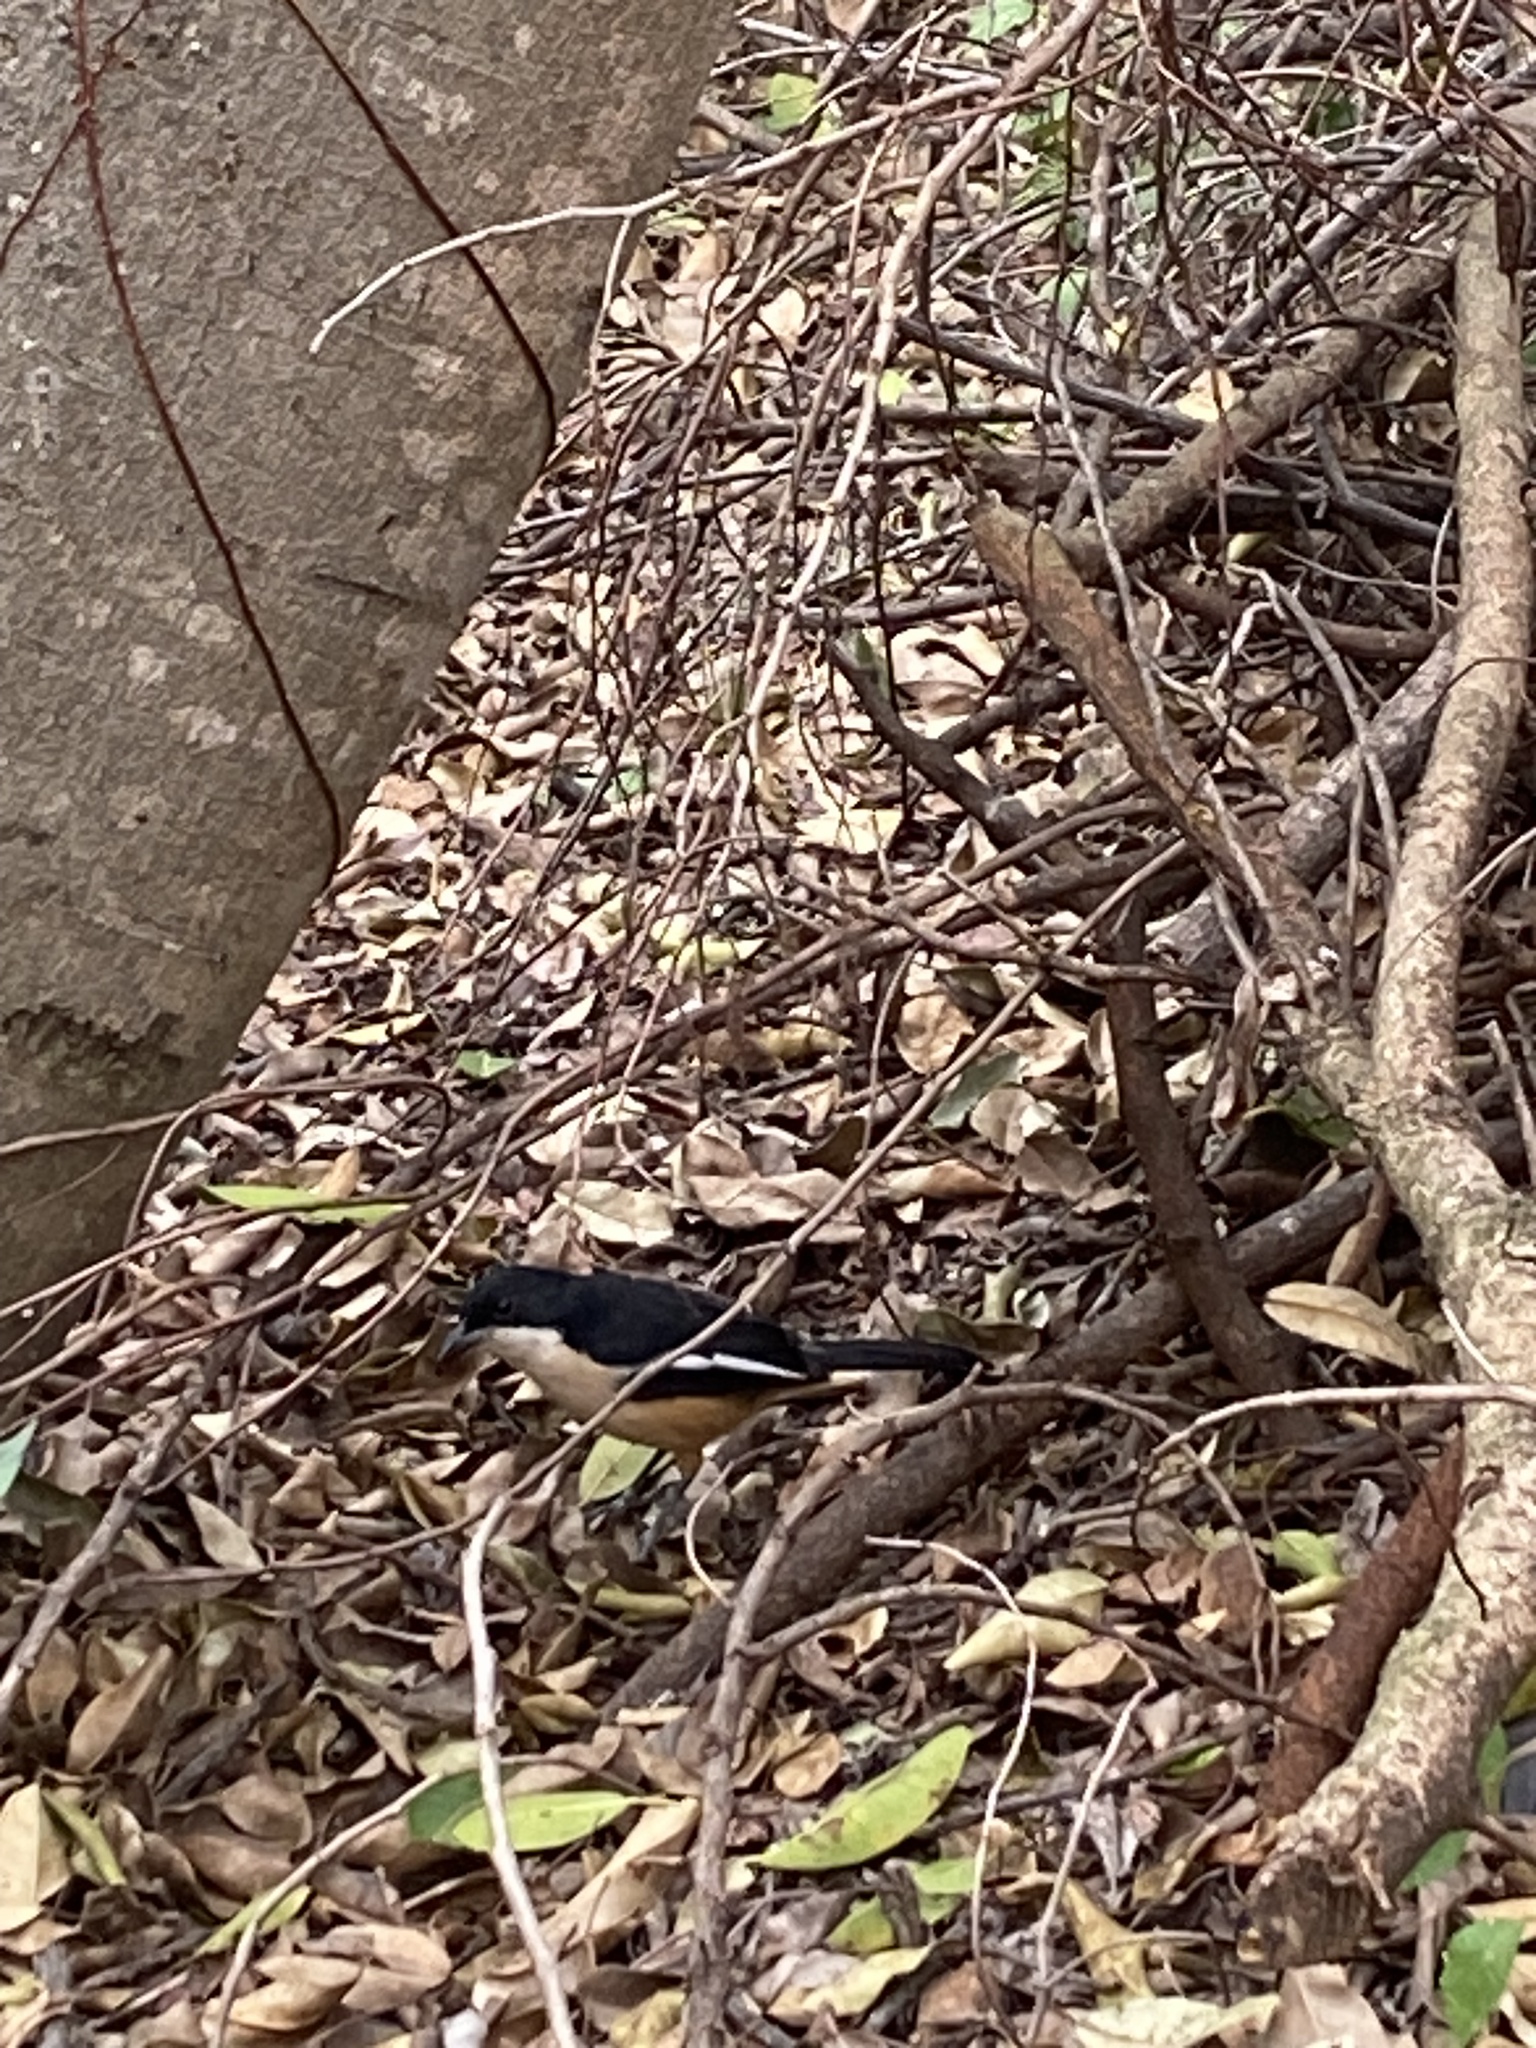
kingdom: Animalia
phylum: Chordata
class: Aves
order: Passeriformes
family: Malaconotidae
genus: Laniarius
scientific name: Laniarius ferrugineus
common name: Southern boubou
